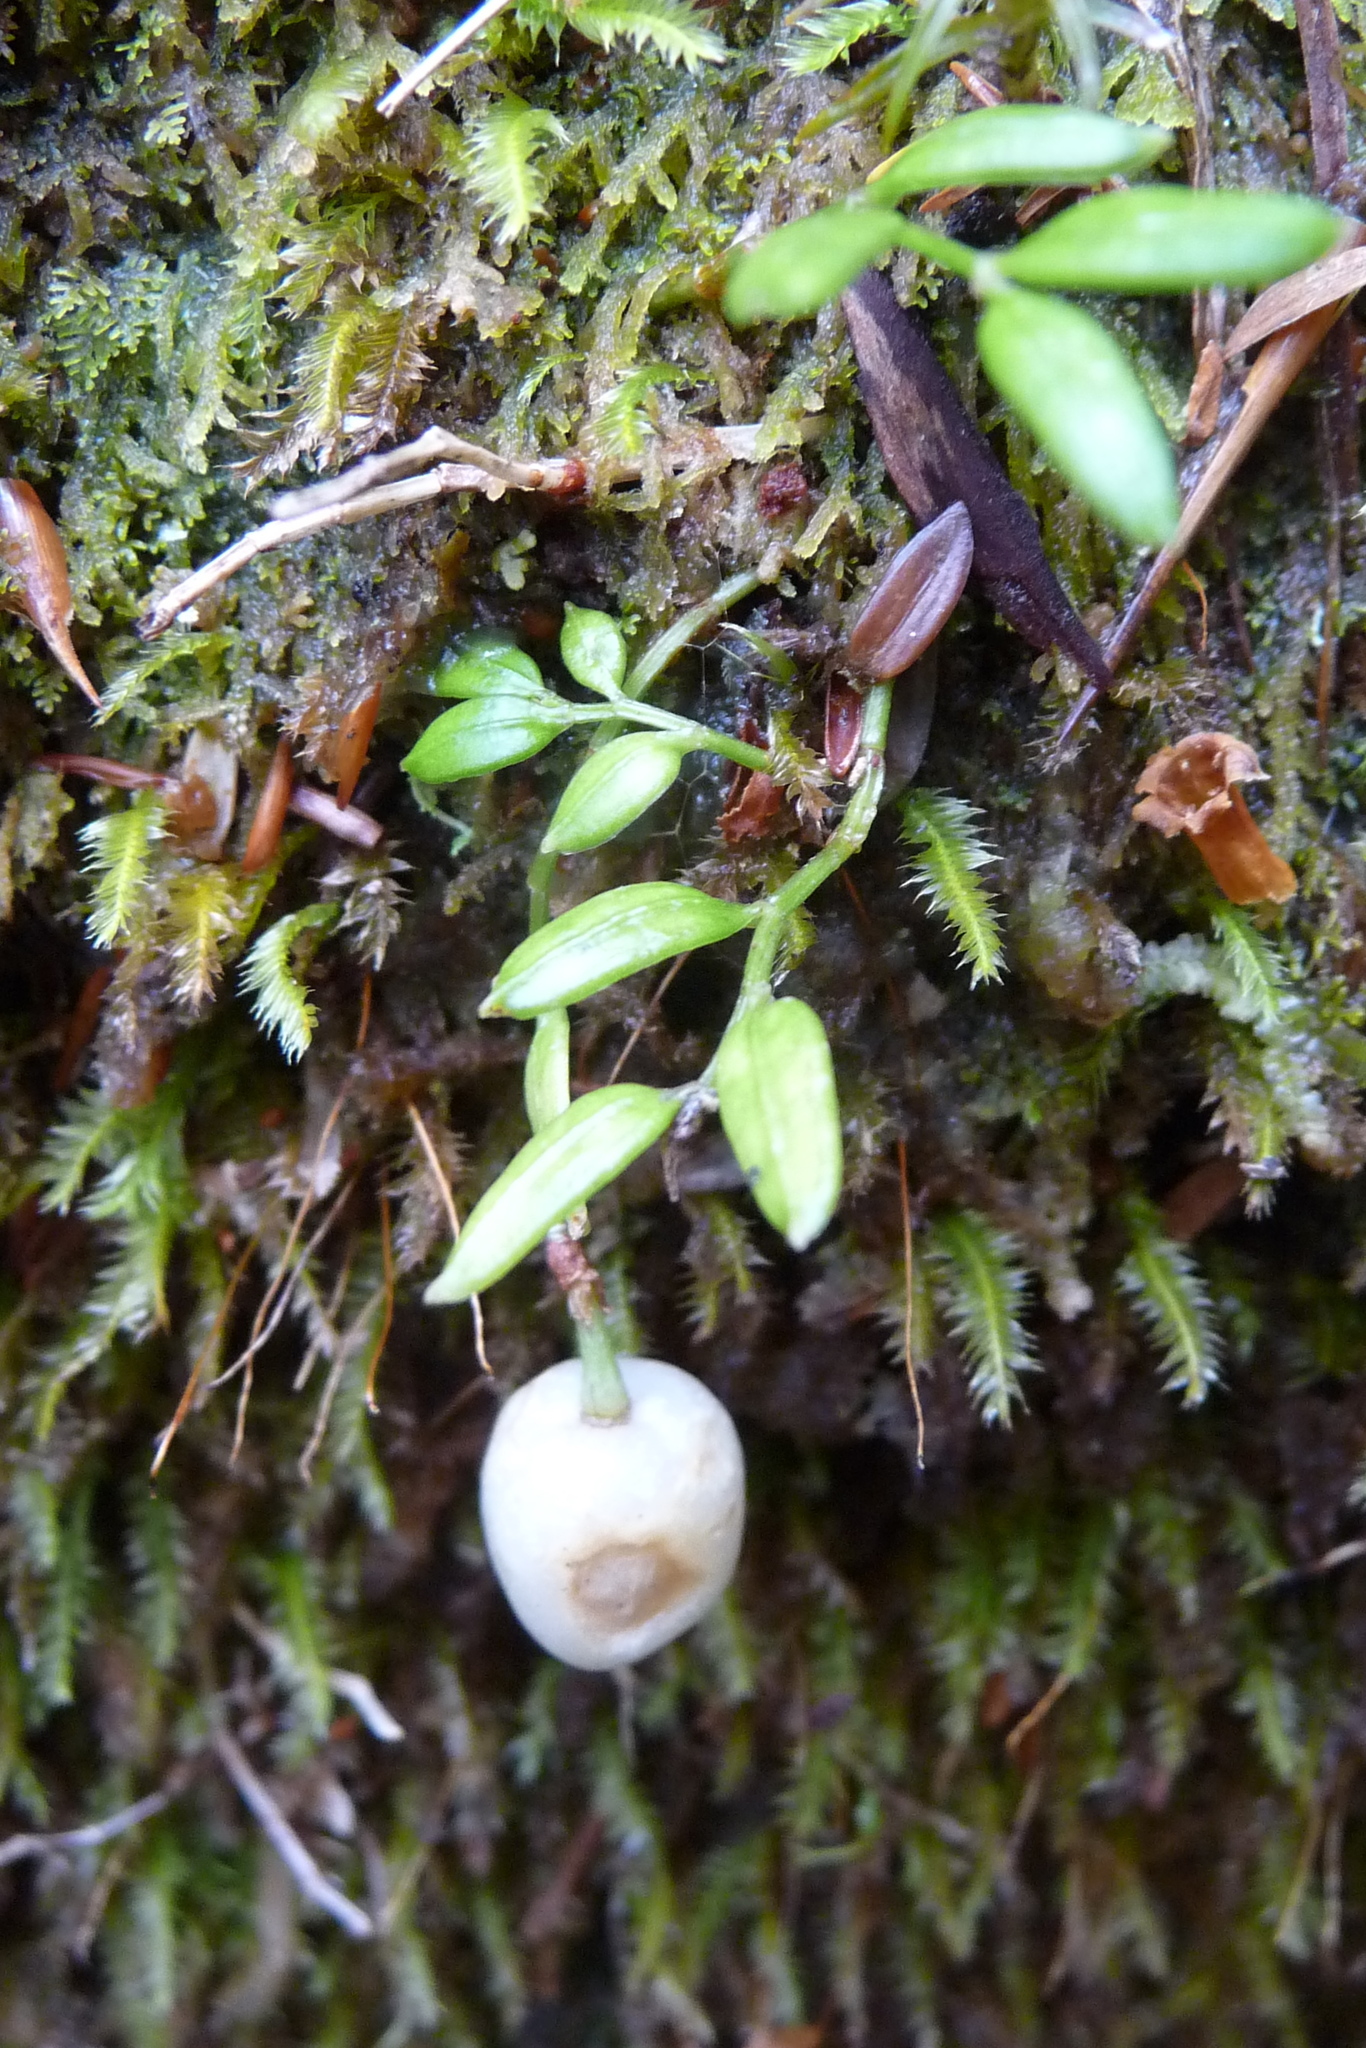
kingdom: Plantae
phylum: Tracheophyta
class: Liliopsida
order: Liliales
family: Alstroemeriaceae
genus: Luzuriaga
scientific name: Luzuriaga parviflora
